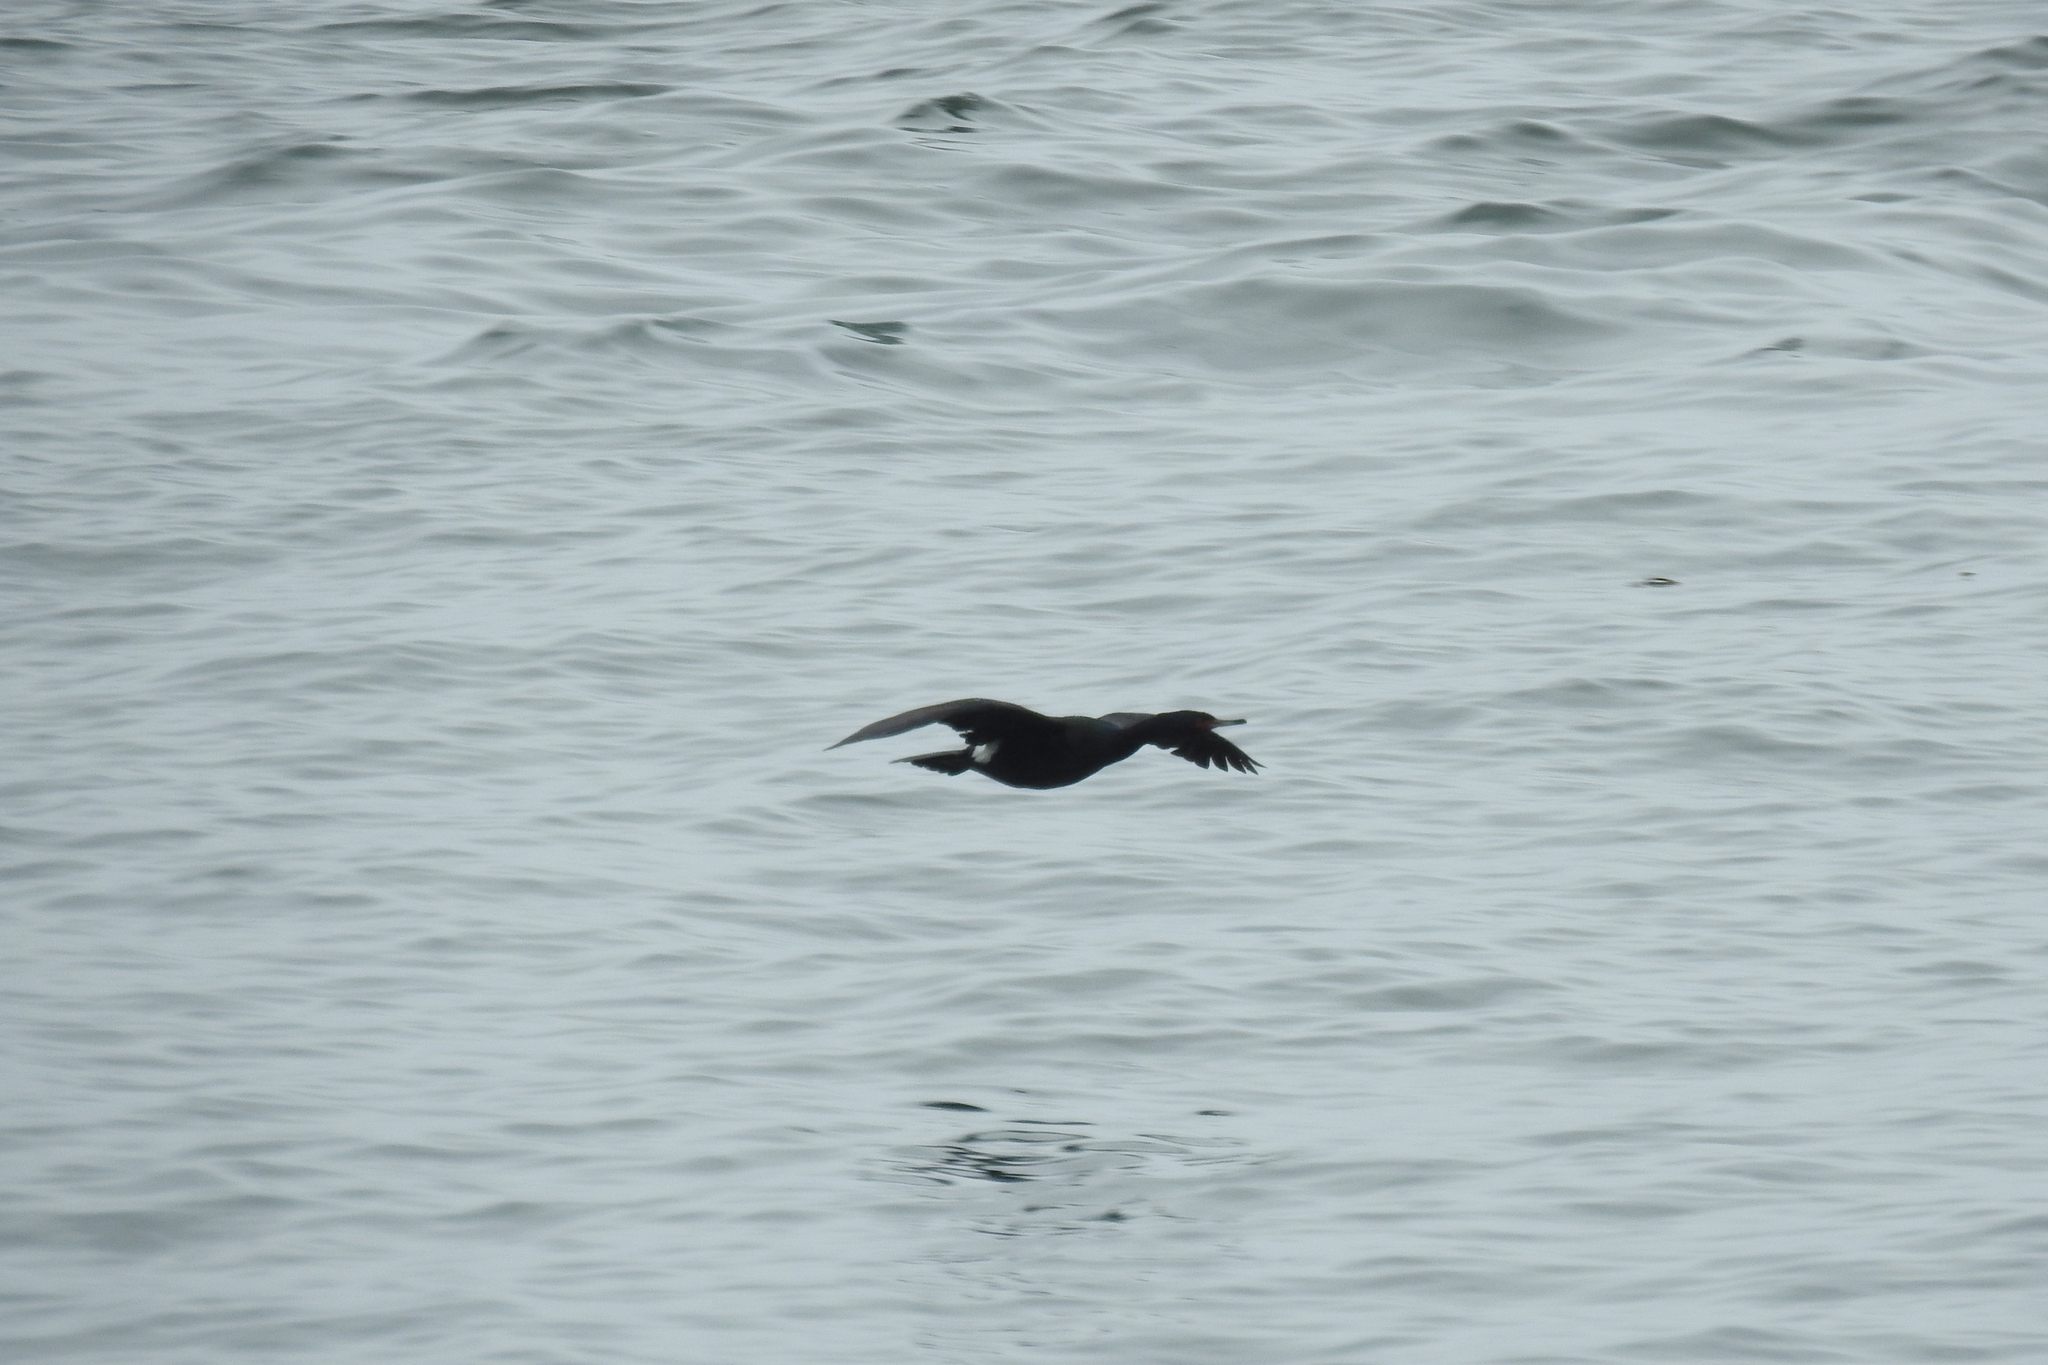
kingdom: Animalia
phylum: Chordata
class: Aves
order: Suliformes
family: Phalacrocoracidae
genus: Phalacrocorax
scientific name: Phalacrocorax pelagicus
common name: Pelagic cormorant
